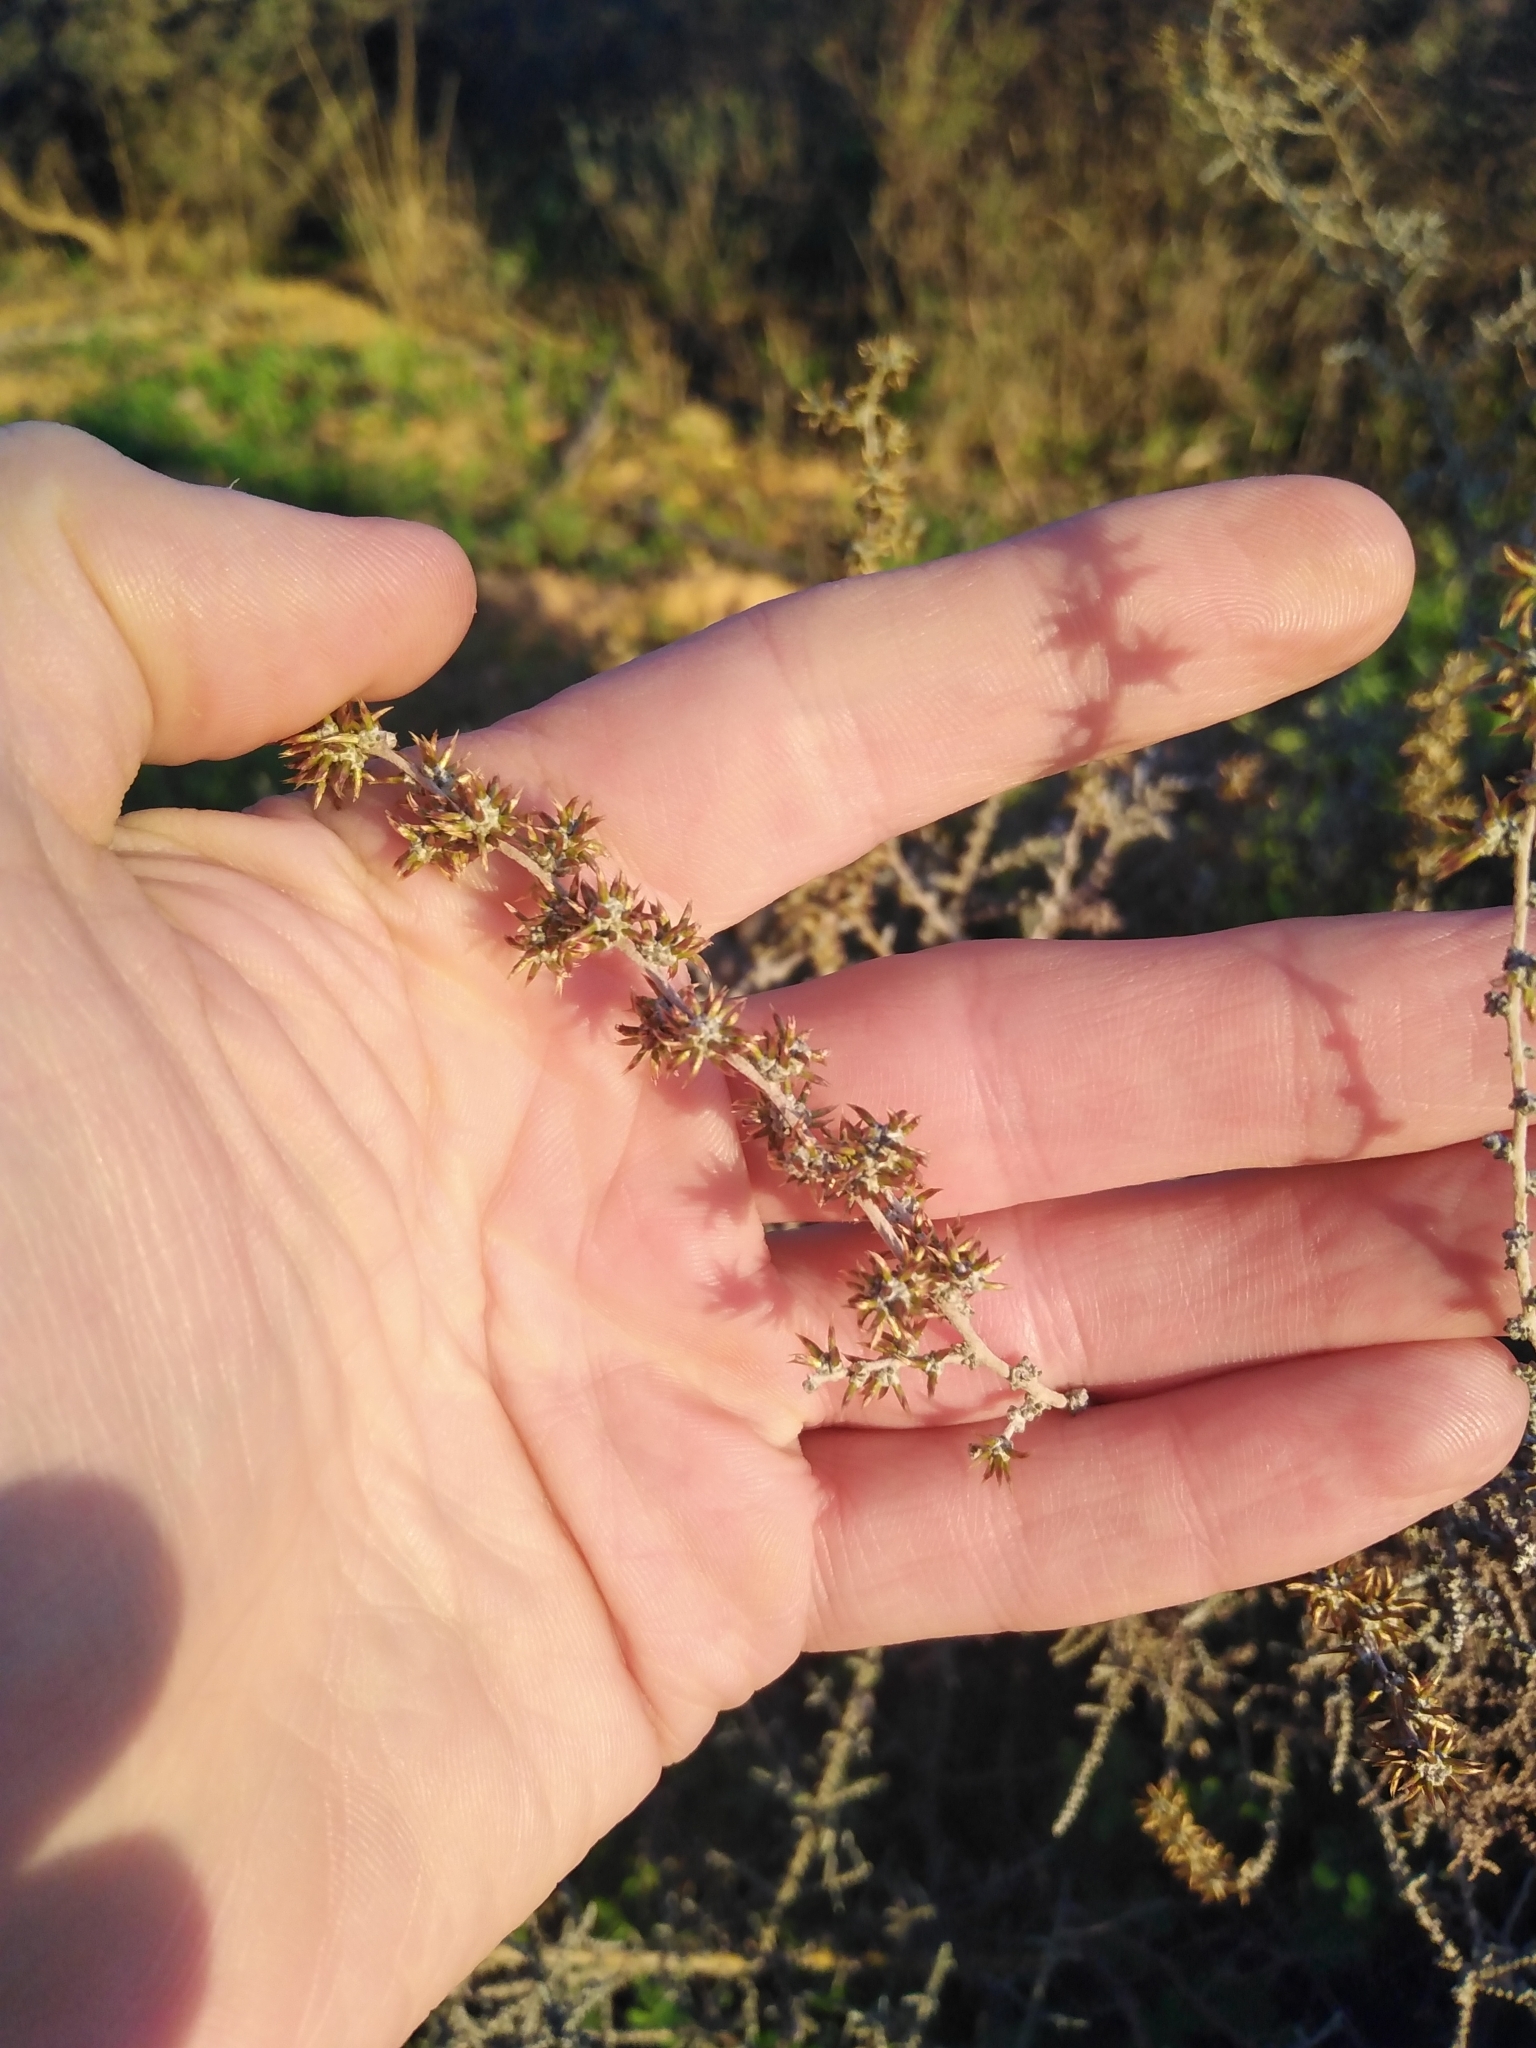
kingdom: Plantae
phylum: Tracheophyta
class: Magnoliopsida
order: Asterales
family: Asteraceae
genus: Seriphium
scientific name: Seriphium plumosum
